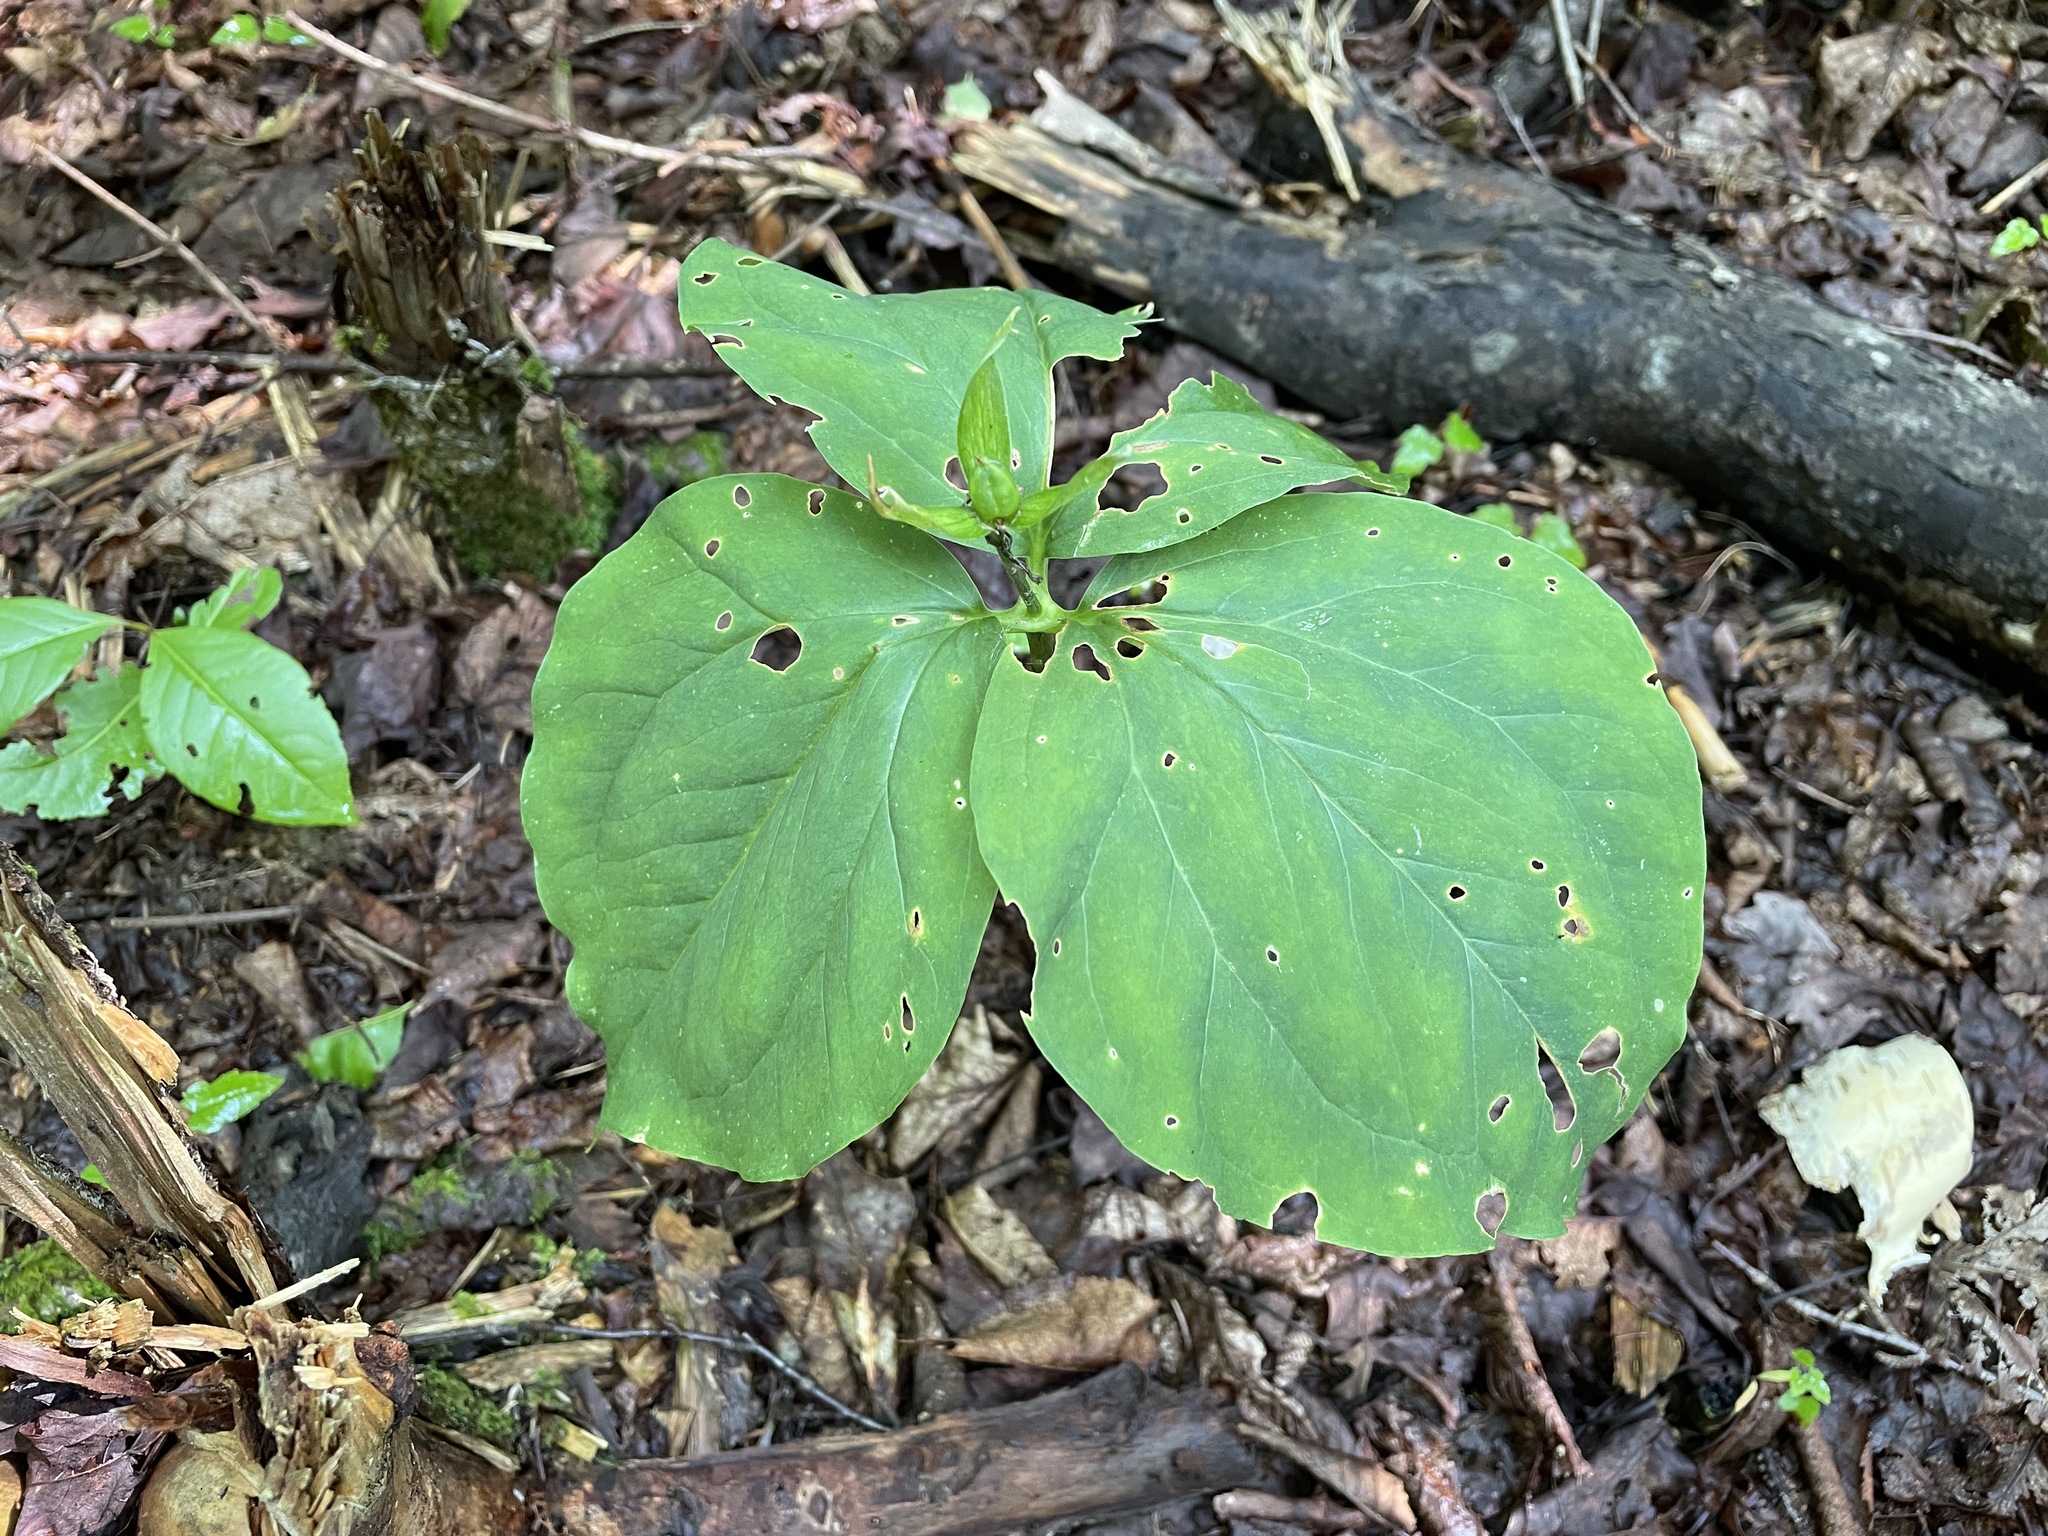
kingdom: Plantae
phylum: Tracheophyta
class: Liliopsida
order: Liliales
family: Melanthiaceae
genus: Trillium
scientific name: Trillium undulatum
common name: Paint trillium
